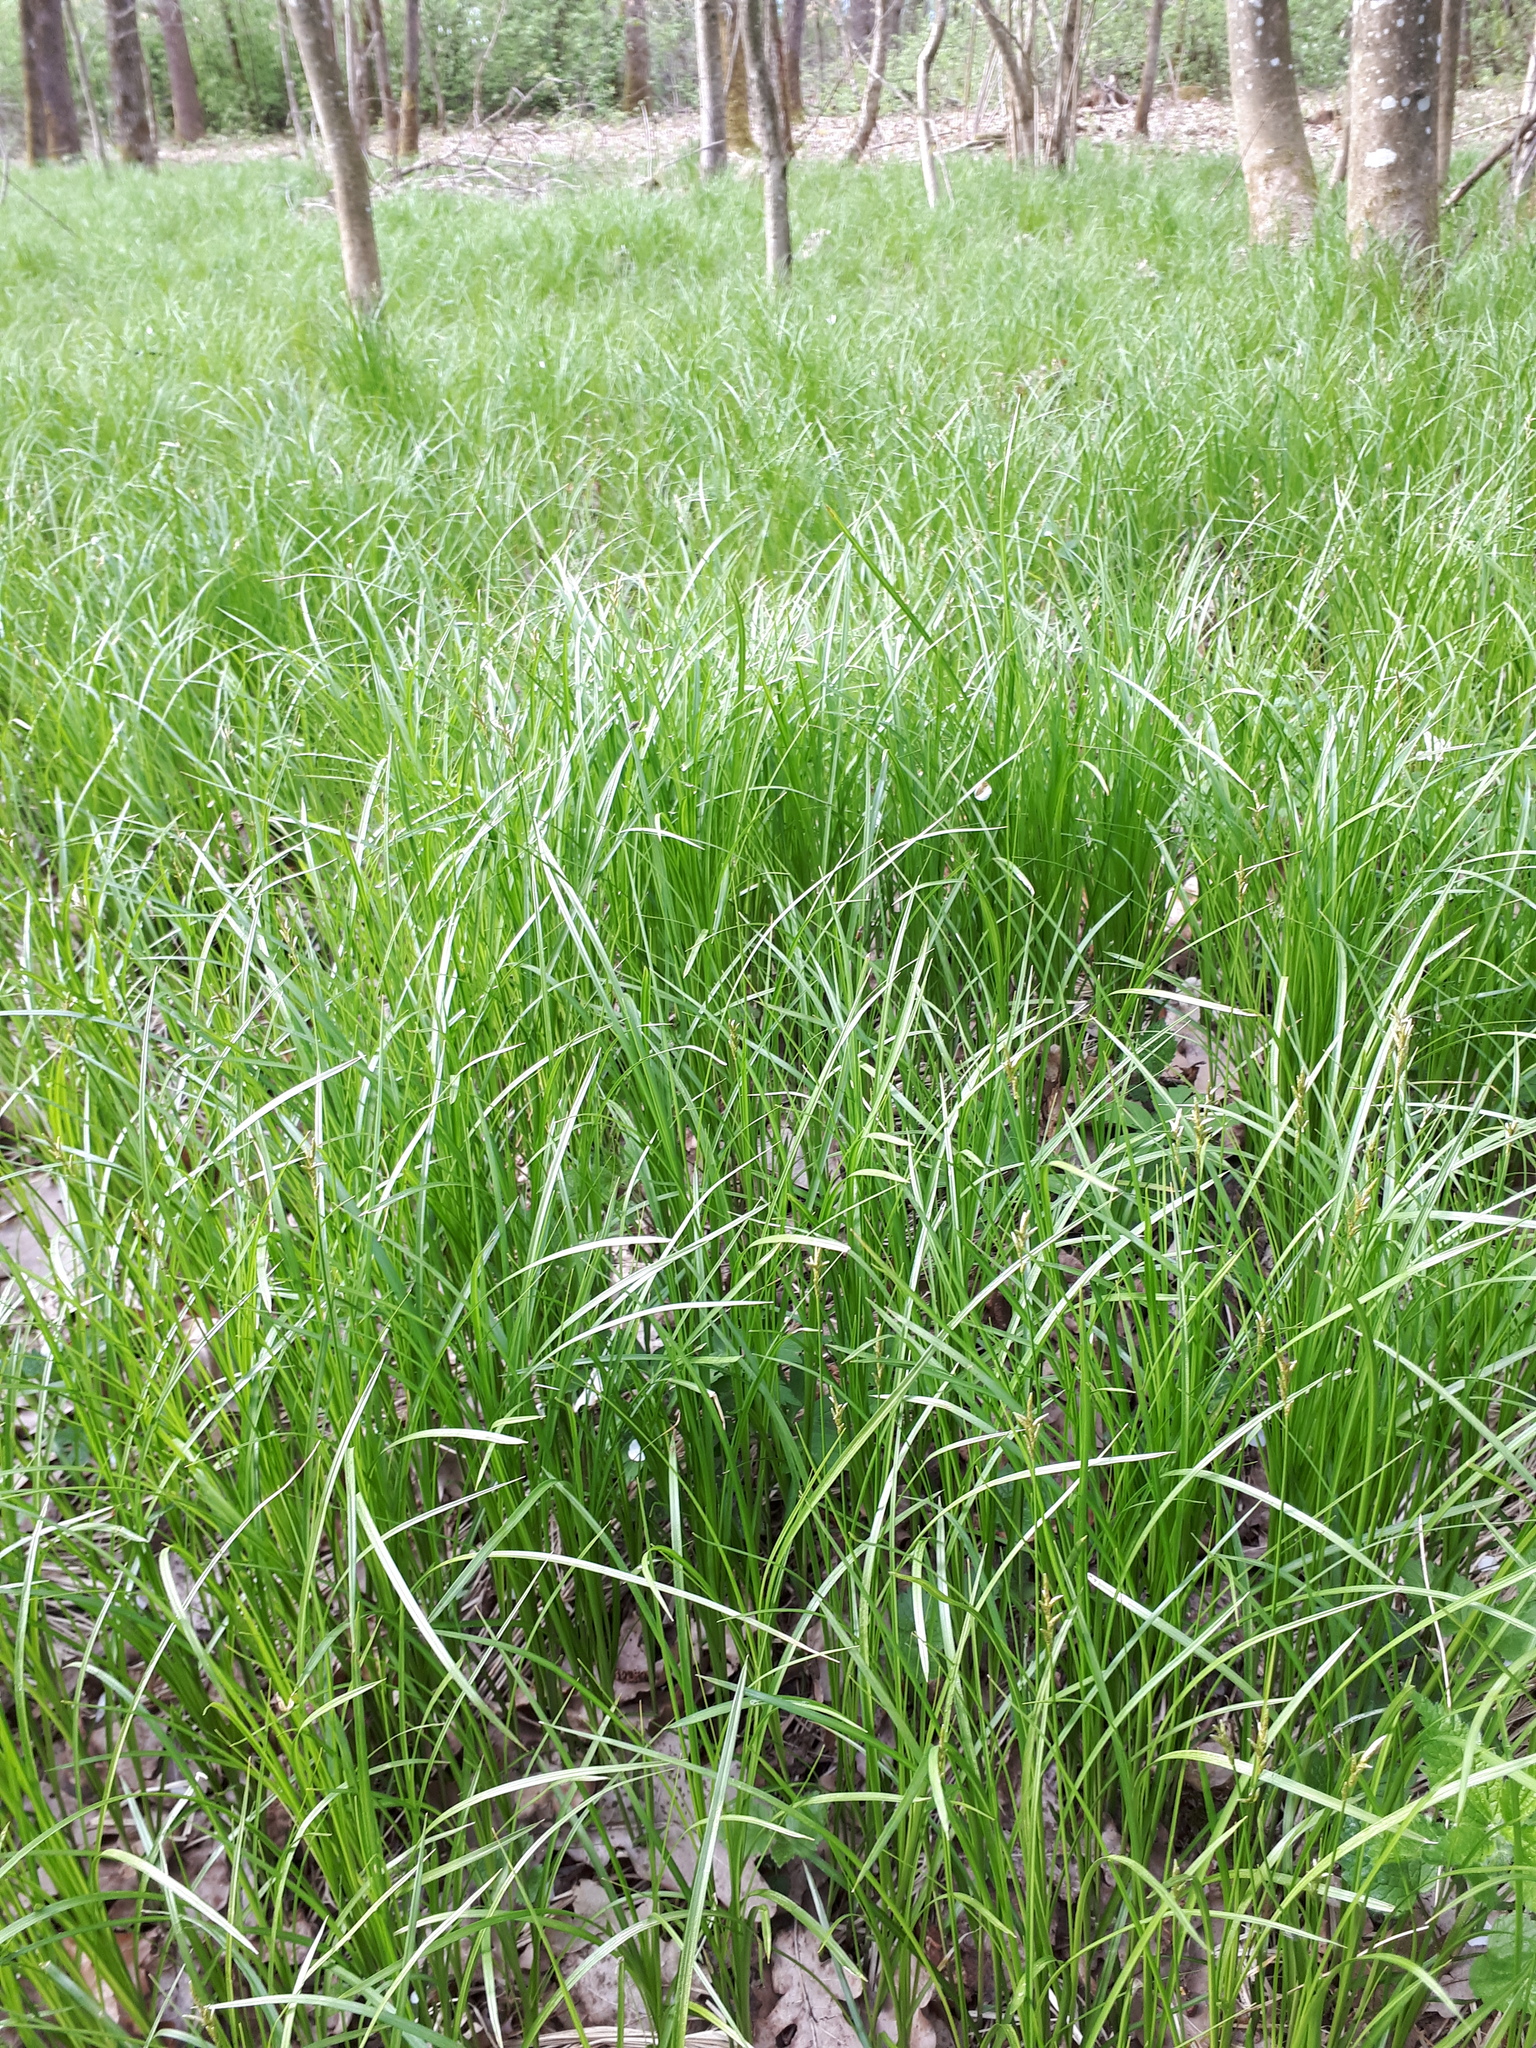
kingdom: Plantae
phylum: Tracheophyta
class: Liliopsida
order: Poales
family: Cyperaceae
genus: Carex
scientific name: Carex brizoides
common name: Quaking-grass sedge
